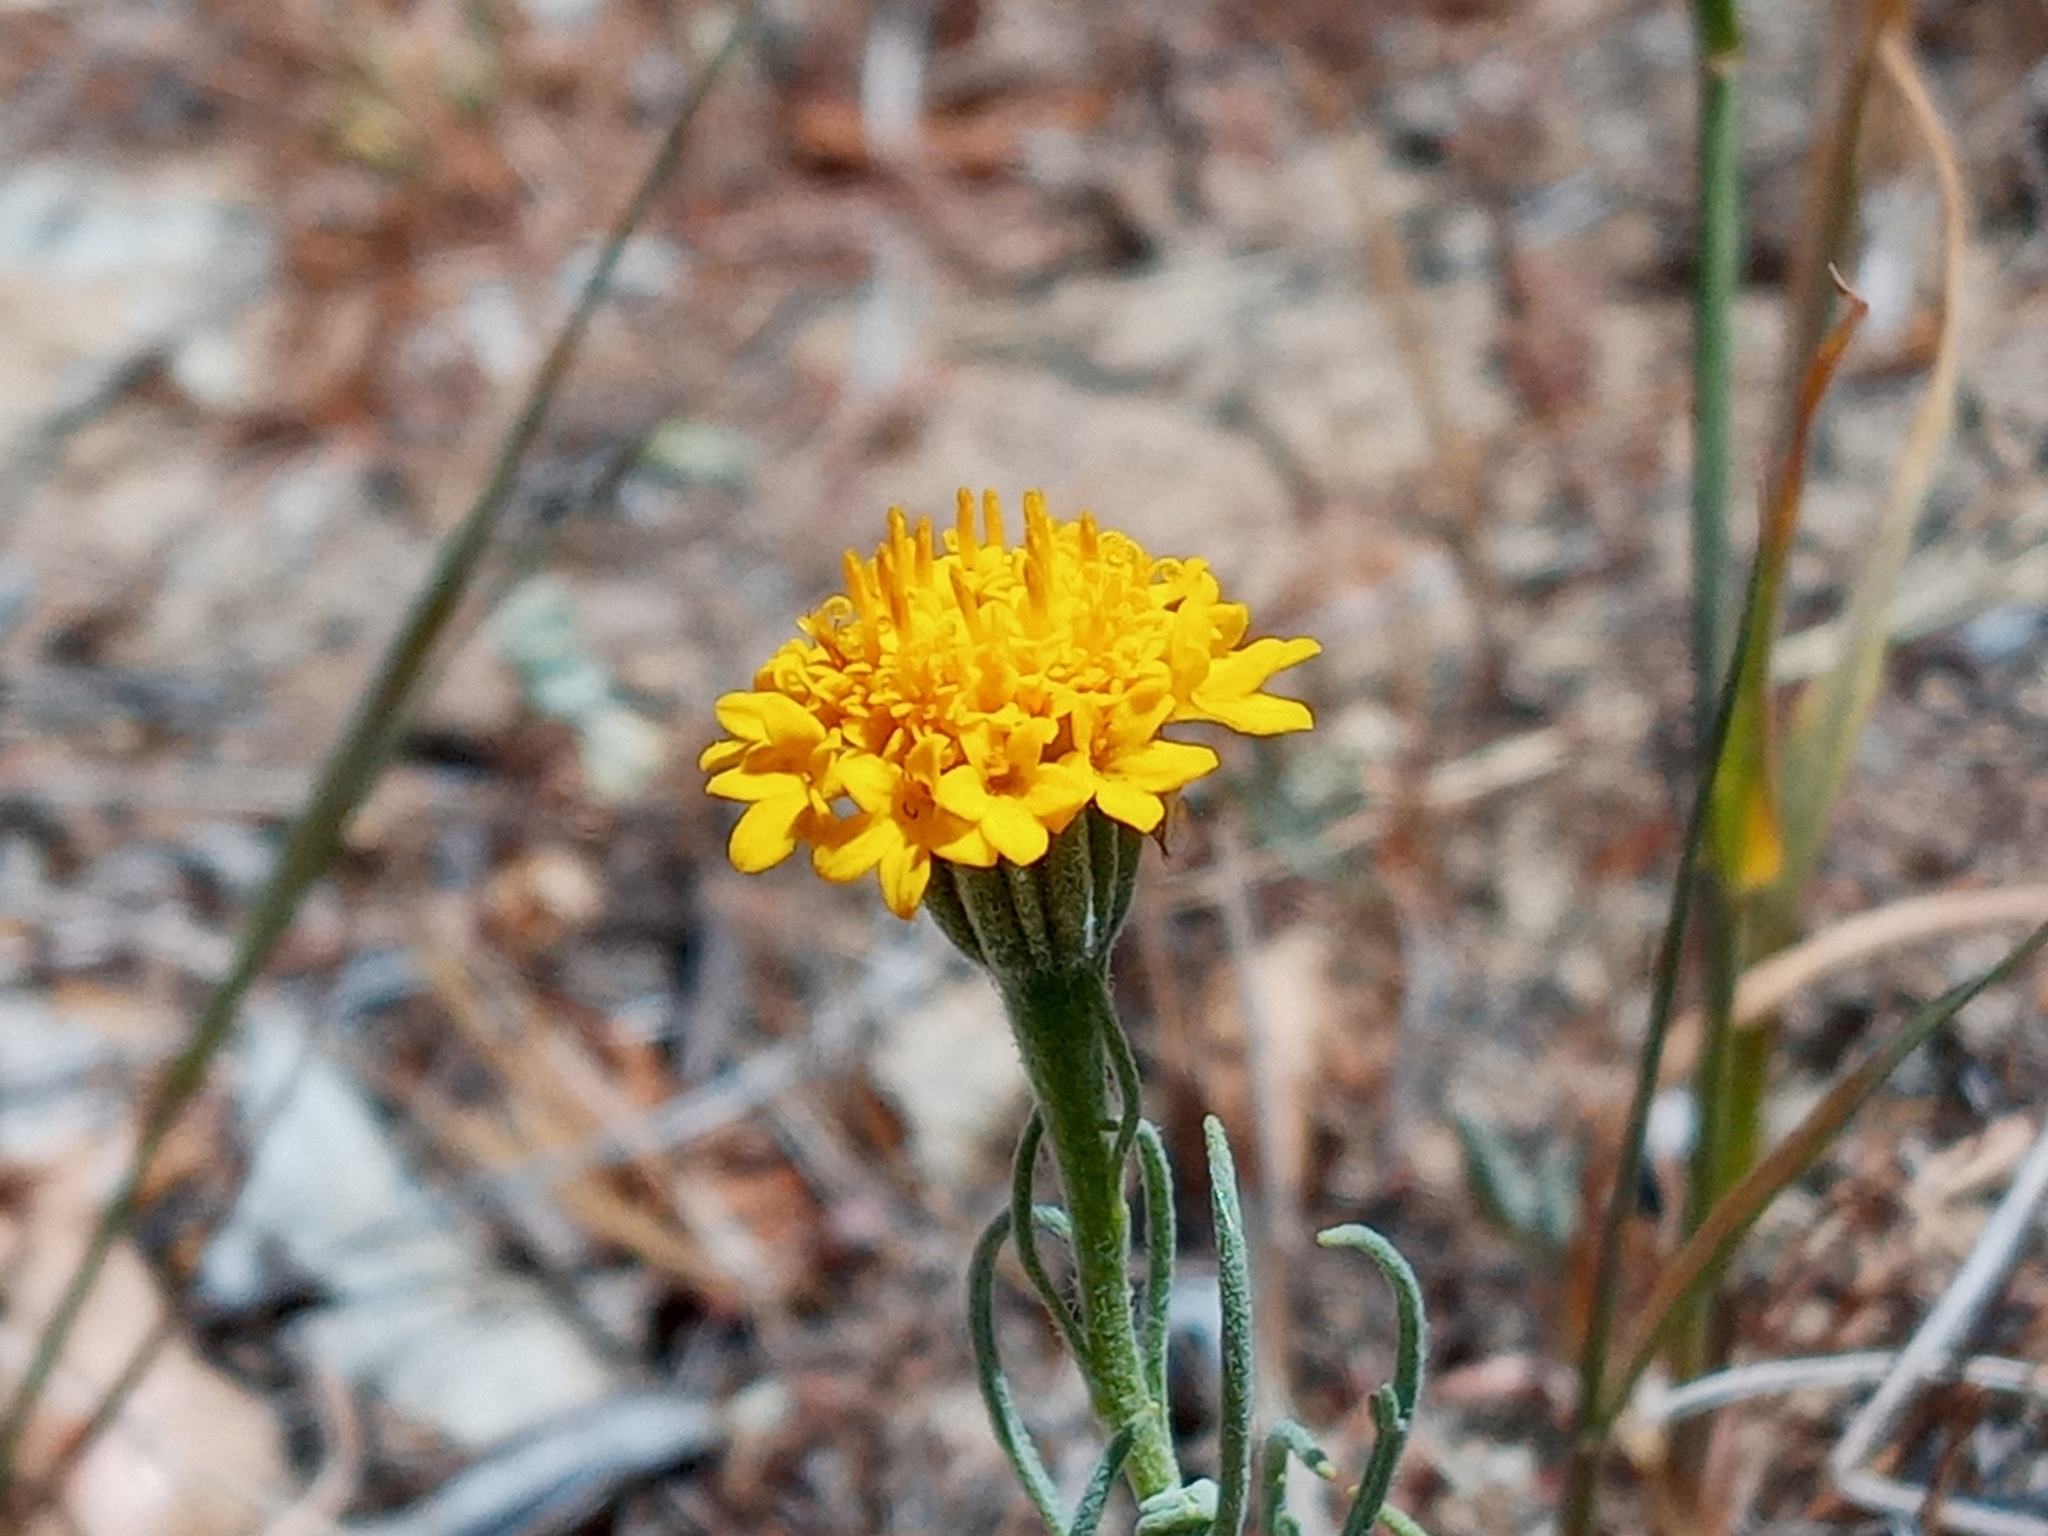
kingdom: Plantae
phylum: Tracheophyta
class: Magnoliopsida
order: Asterales
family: Asteraceae
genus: Chaenactis
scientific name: Chaenactis glabriuscula
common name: Yellow pincushion
